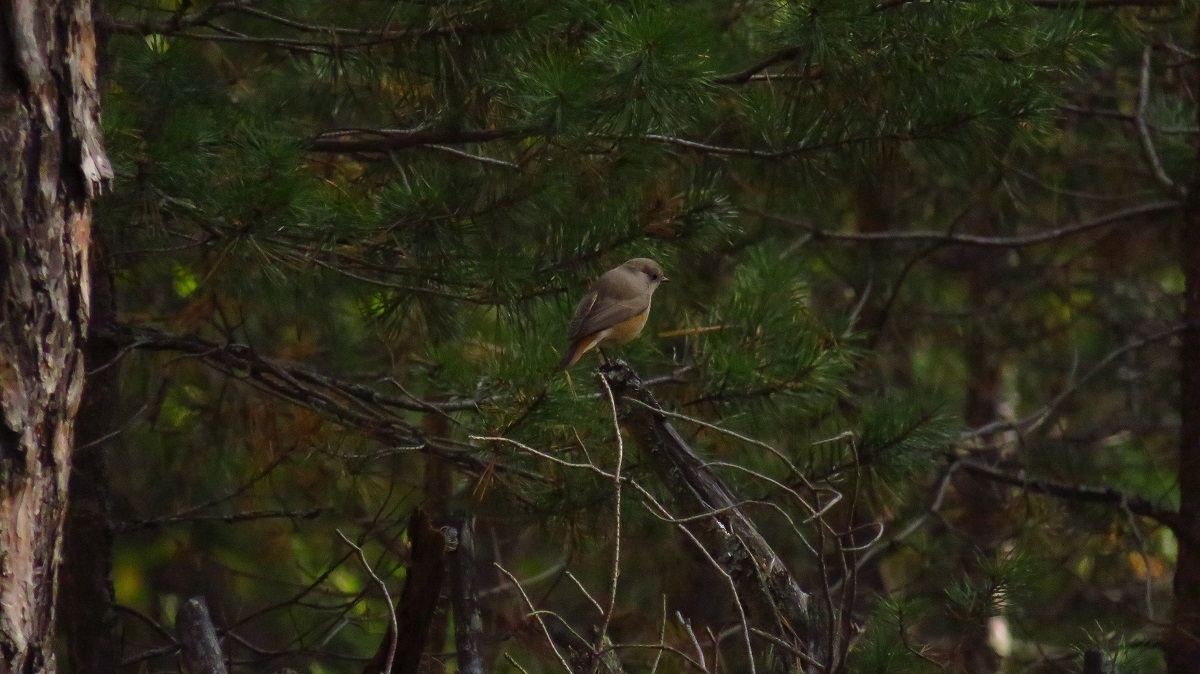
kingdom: Animalia
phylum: Chordata
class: Aves
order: Passeriformes
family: Muscicapidae
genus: Phoenicurus
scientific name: Phoenicurus phoenicurus
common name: Common redstart
